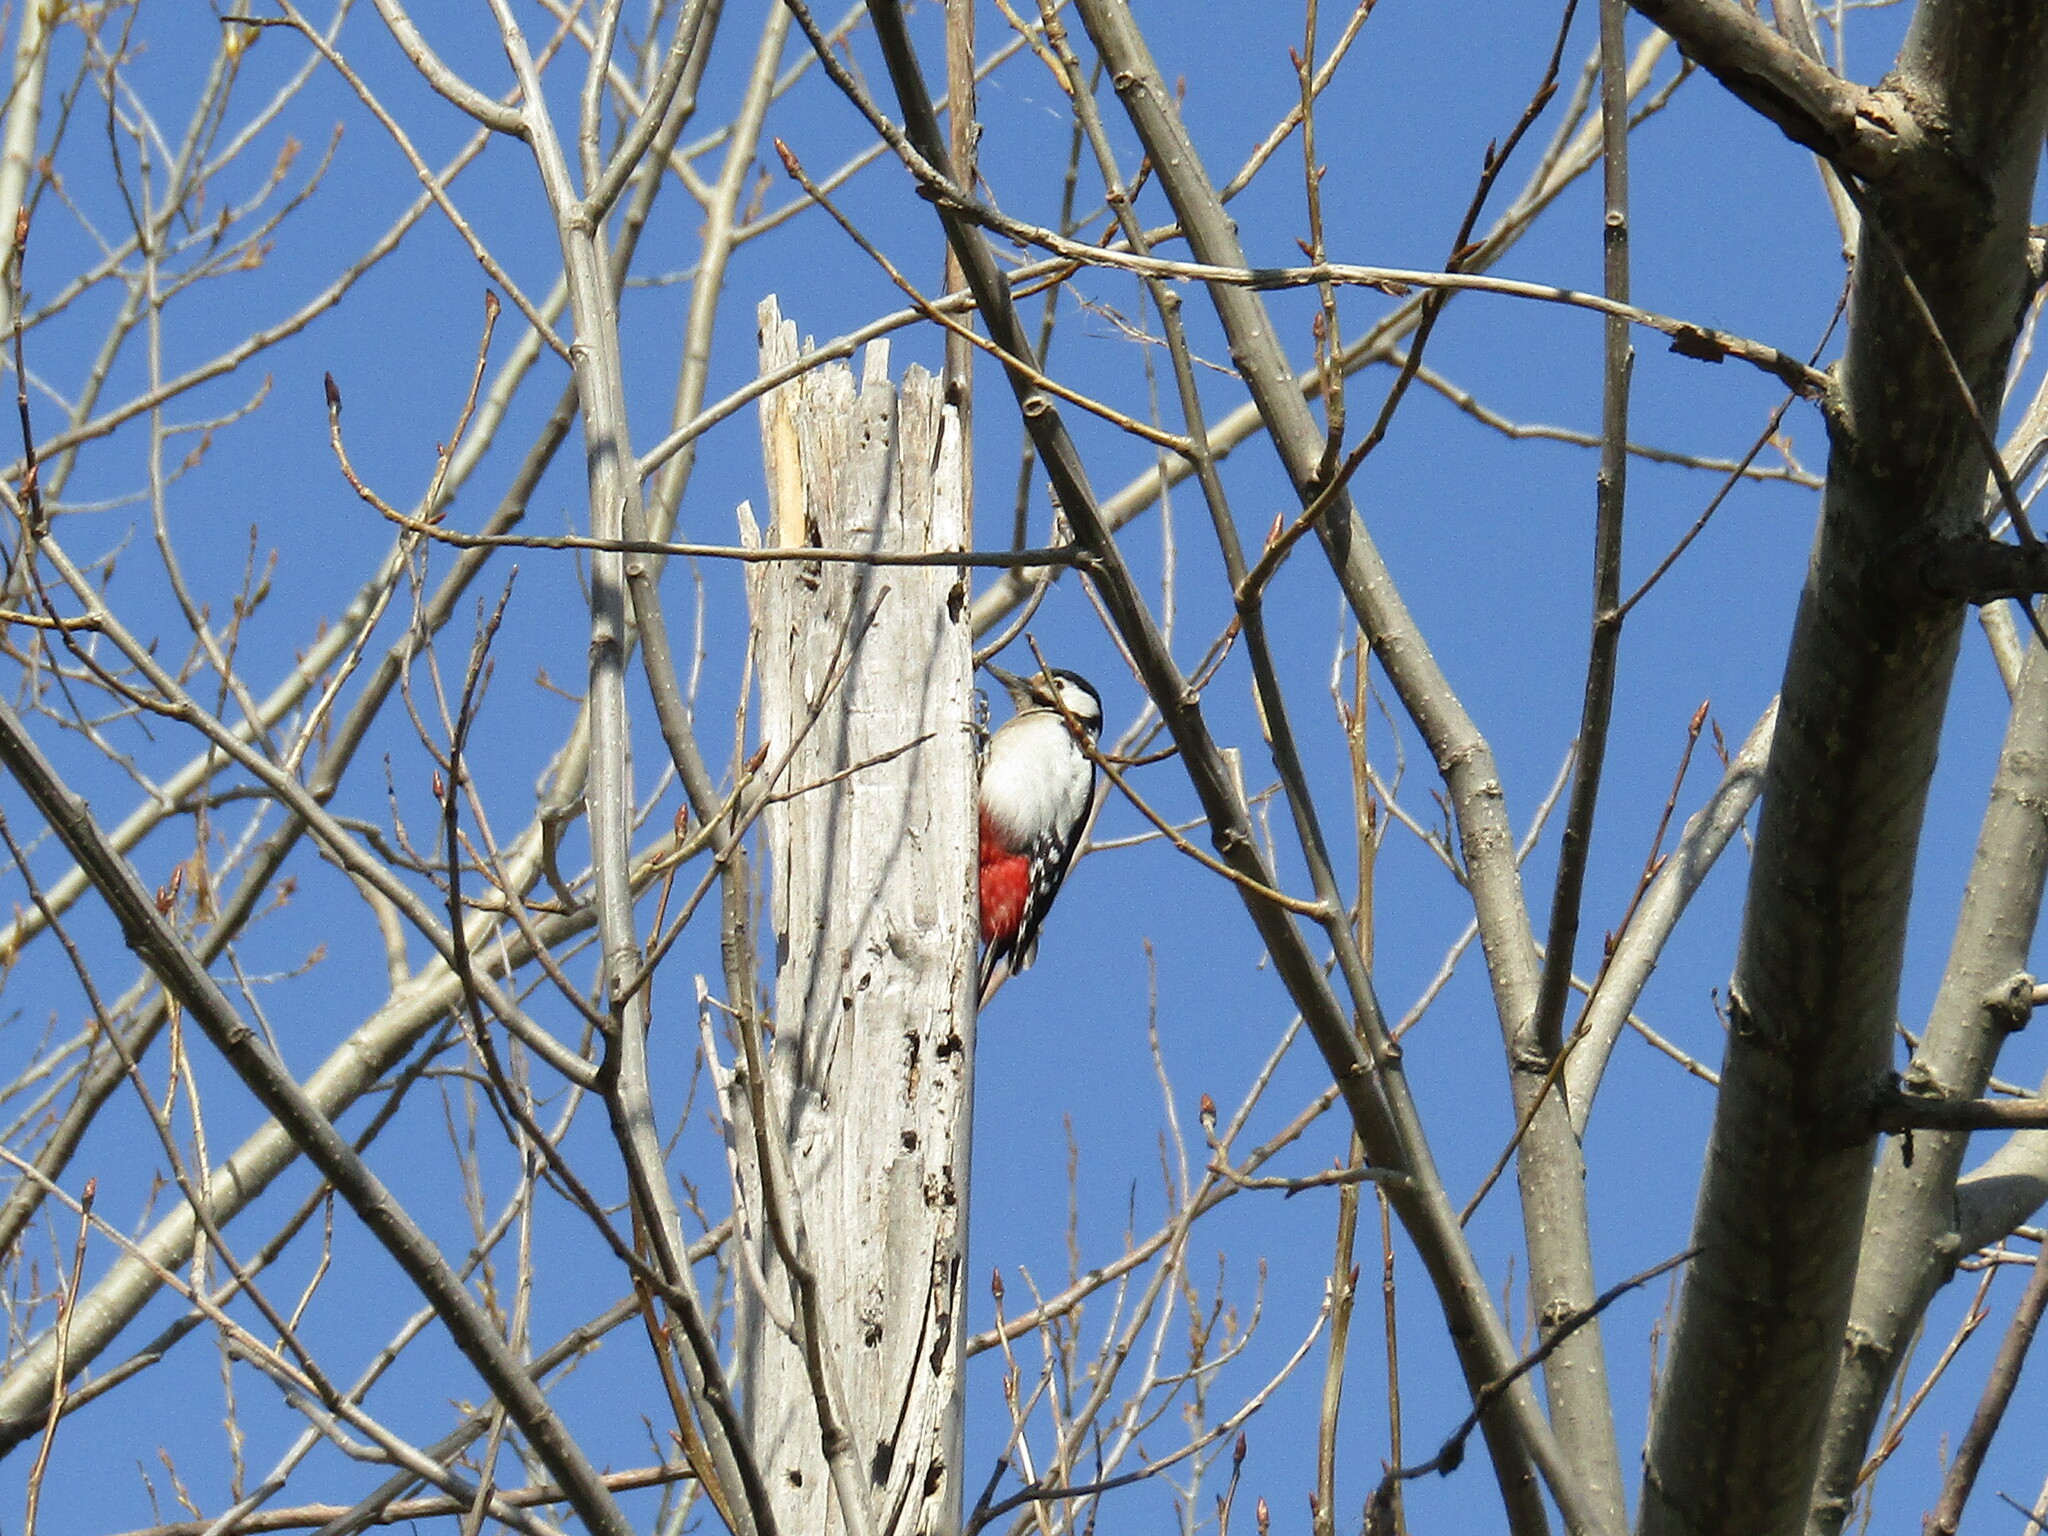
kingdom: Animalia
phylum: Chordata
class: Aves
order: Piciformes
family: Picidae
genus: Dendrocopos
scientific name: Dendrocopos major
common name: Great spotted woodpecker
